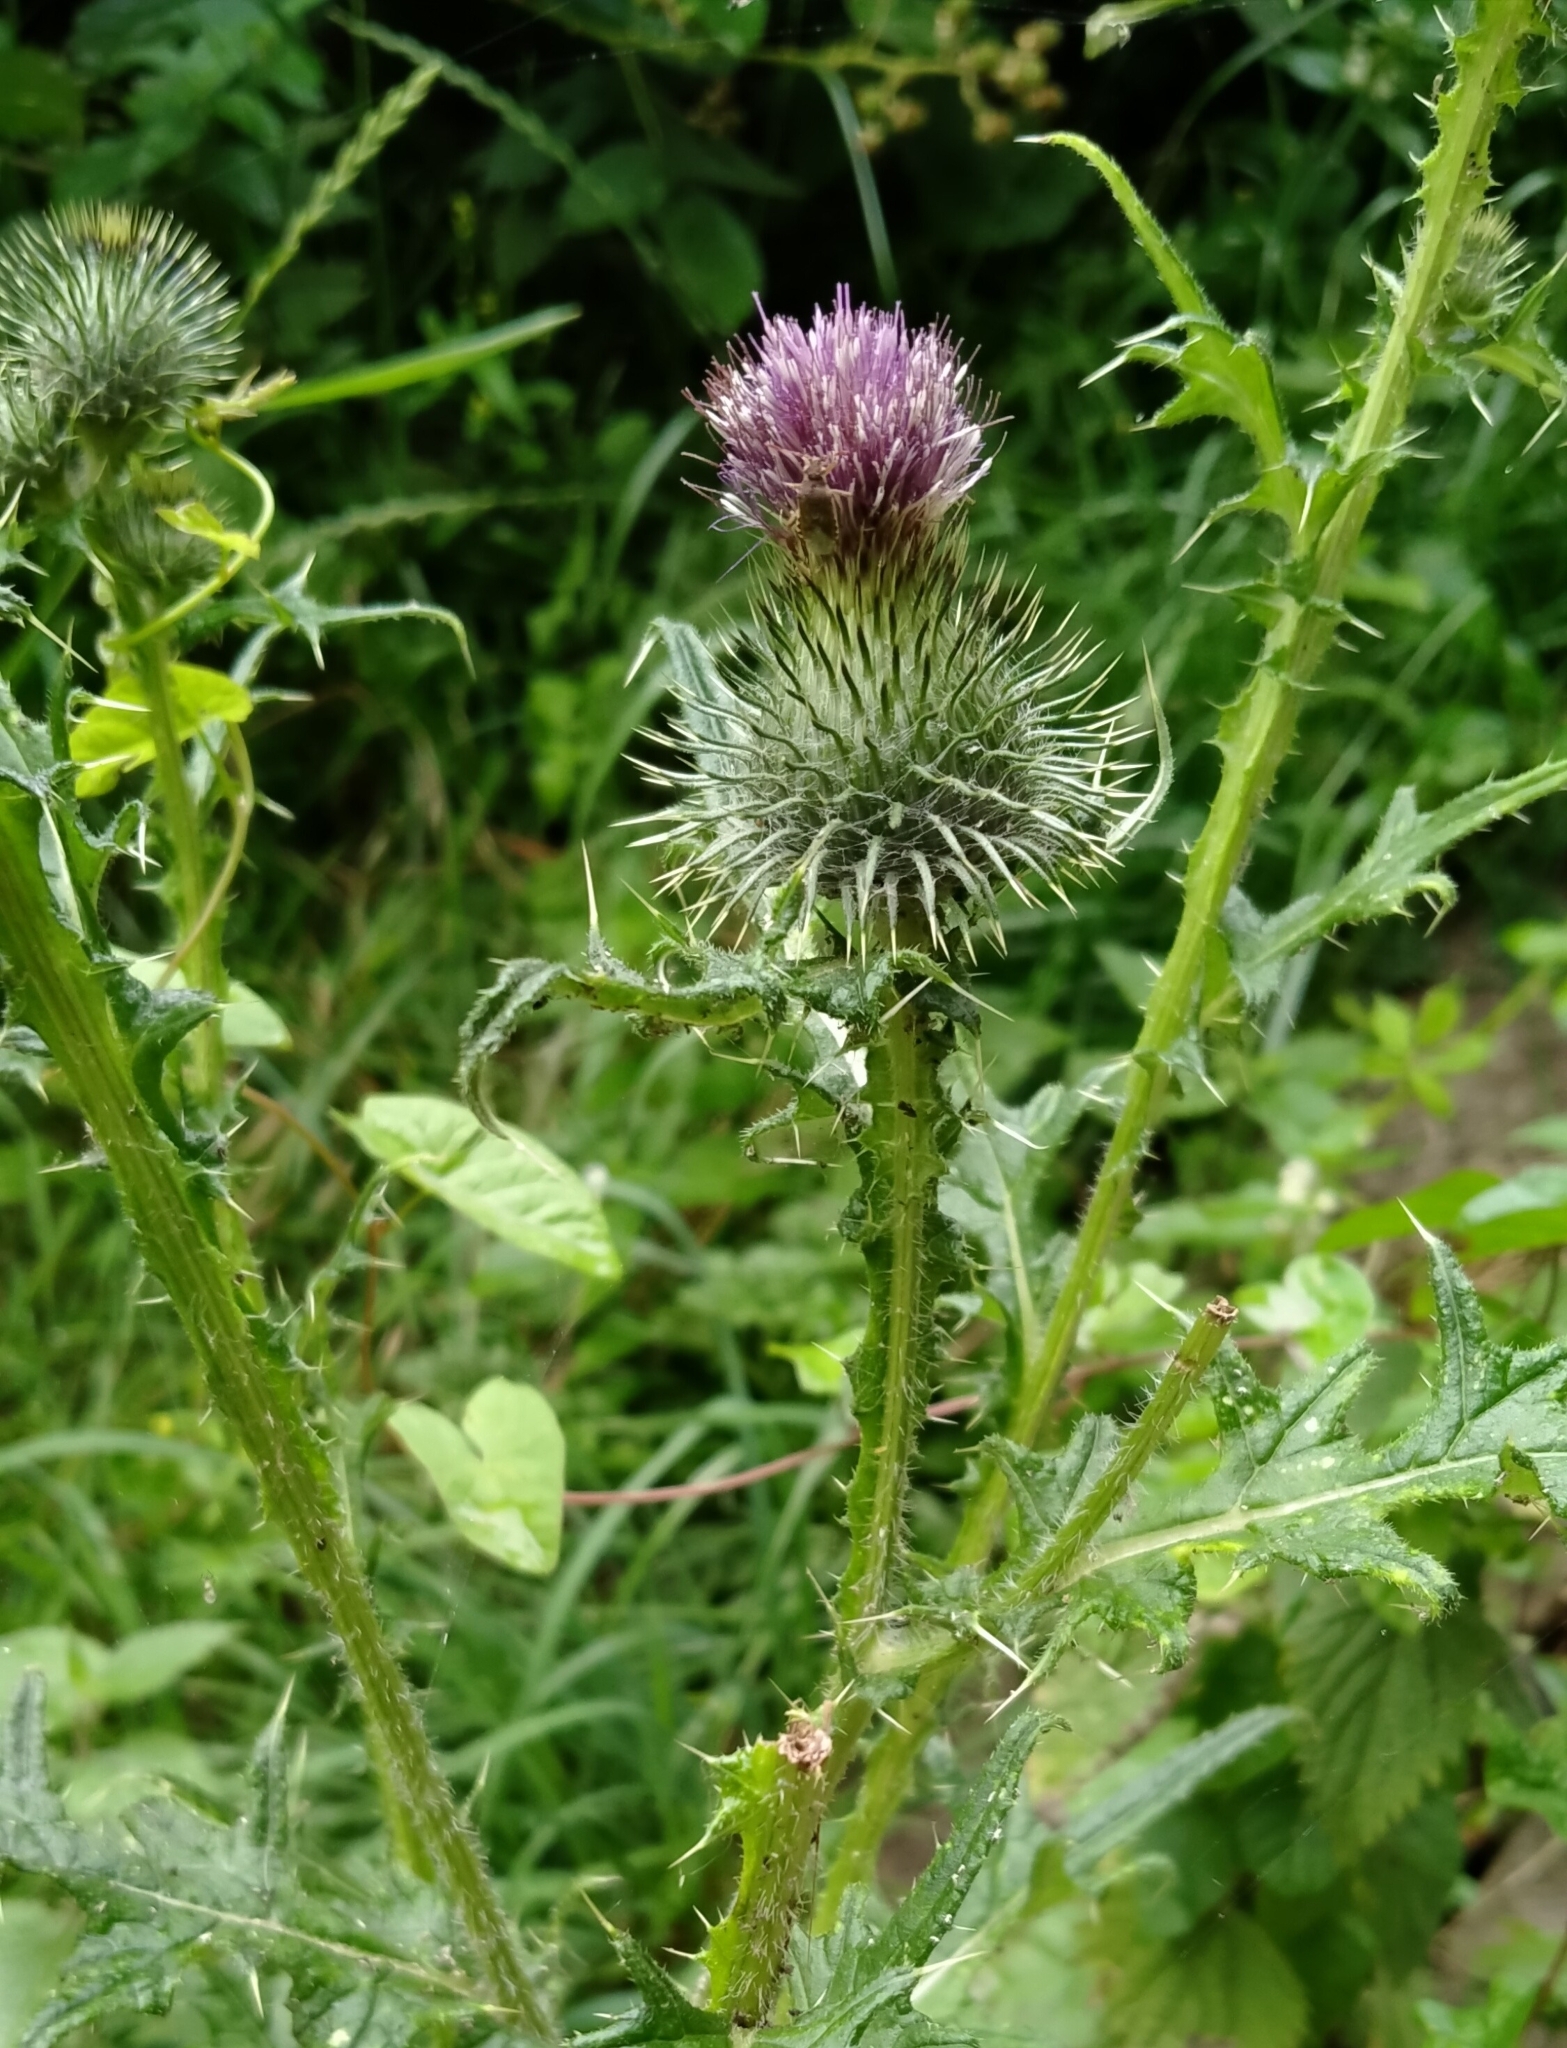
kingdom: Plantae
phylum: Tracheophyta
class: Magnoliopsida
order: Asterales
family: Asteraceae
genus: Cirsium
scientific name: Cirsium vulgare
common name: Bull thistle
